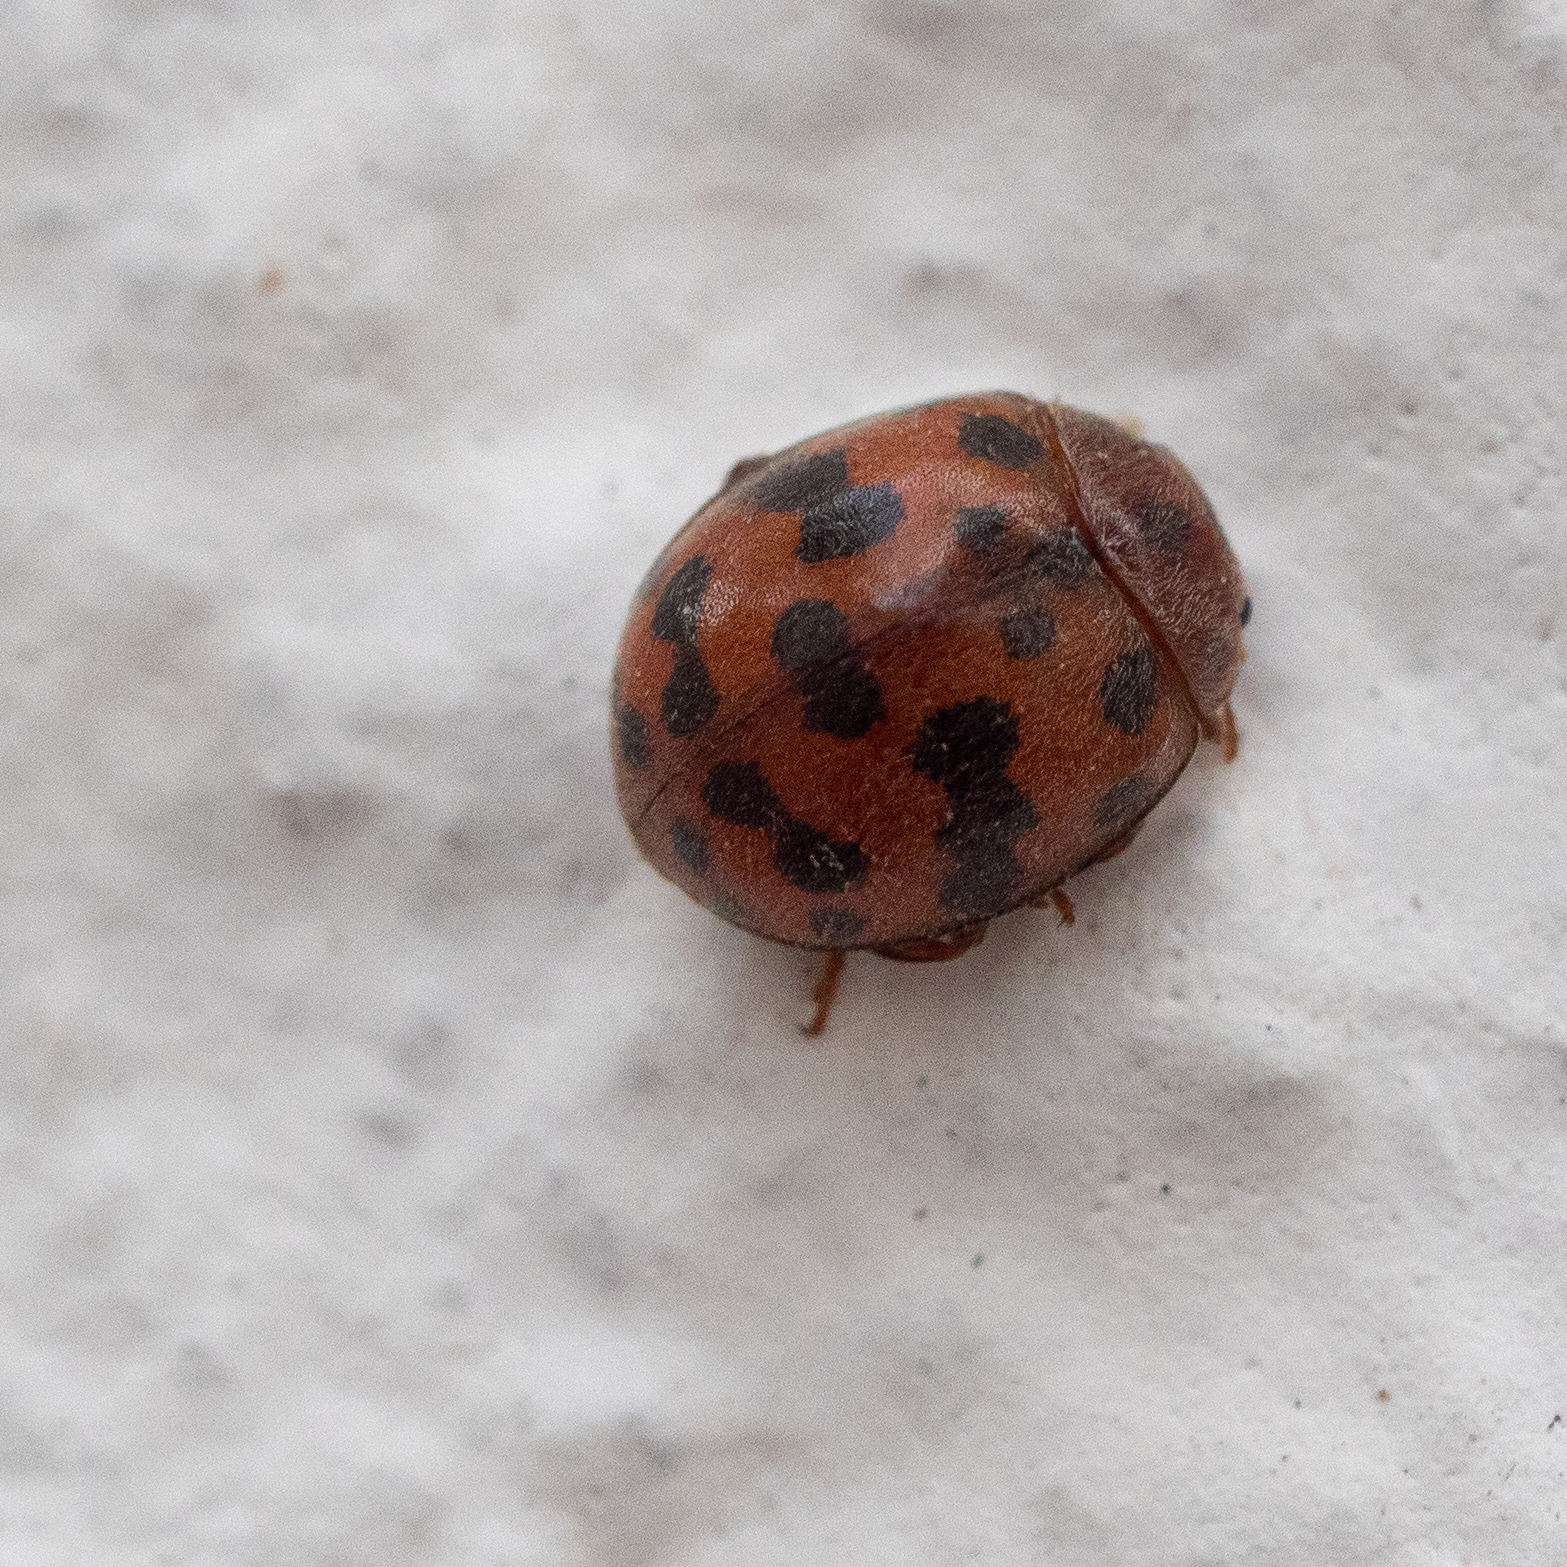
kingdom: Animalia
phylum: Arthropoda
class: Insecta
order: Coleoptera
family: Coccinellidae
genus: Subcoccinella
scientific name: Subcoccinella vigintiquatuorpunctata
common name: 24-spot ladybird
